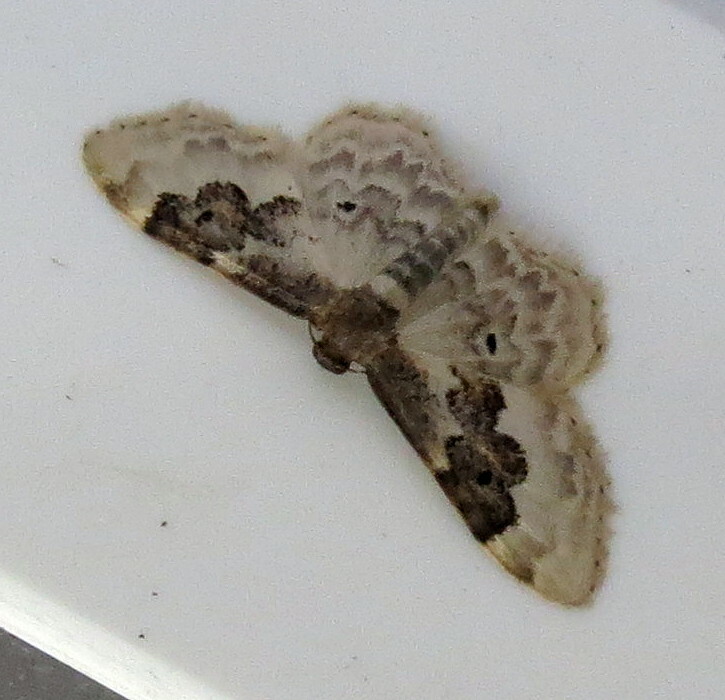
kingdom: Animalia
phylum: Arthropoda
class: Insecta
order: Lepidoptera
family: Geometridae
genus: Idaea
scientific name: Idaea rusticata
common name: Least carpet
